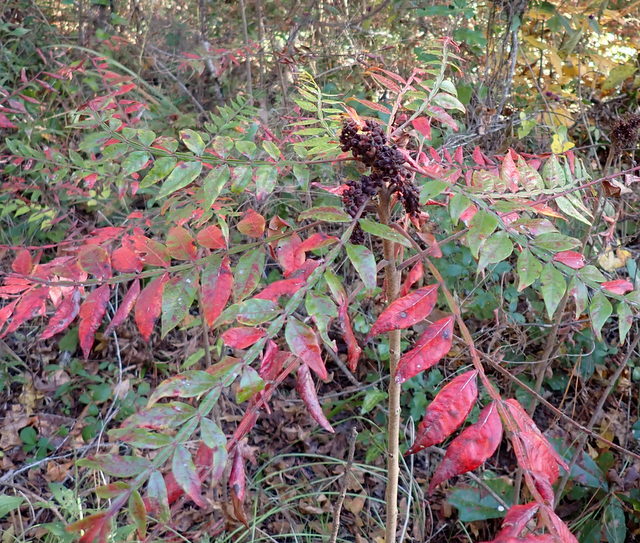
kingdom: Plantae
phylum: Tracheophyta
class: Magnoliopsida
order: Sapindales
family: Anacardiaceae
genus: Rhus
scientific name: Rhus copallina
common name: Shining sumac
